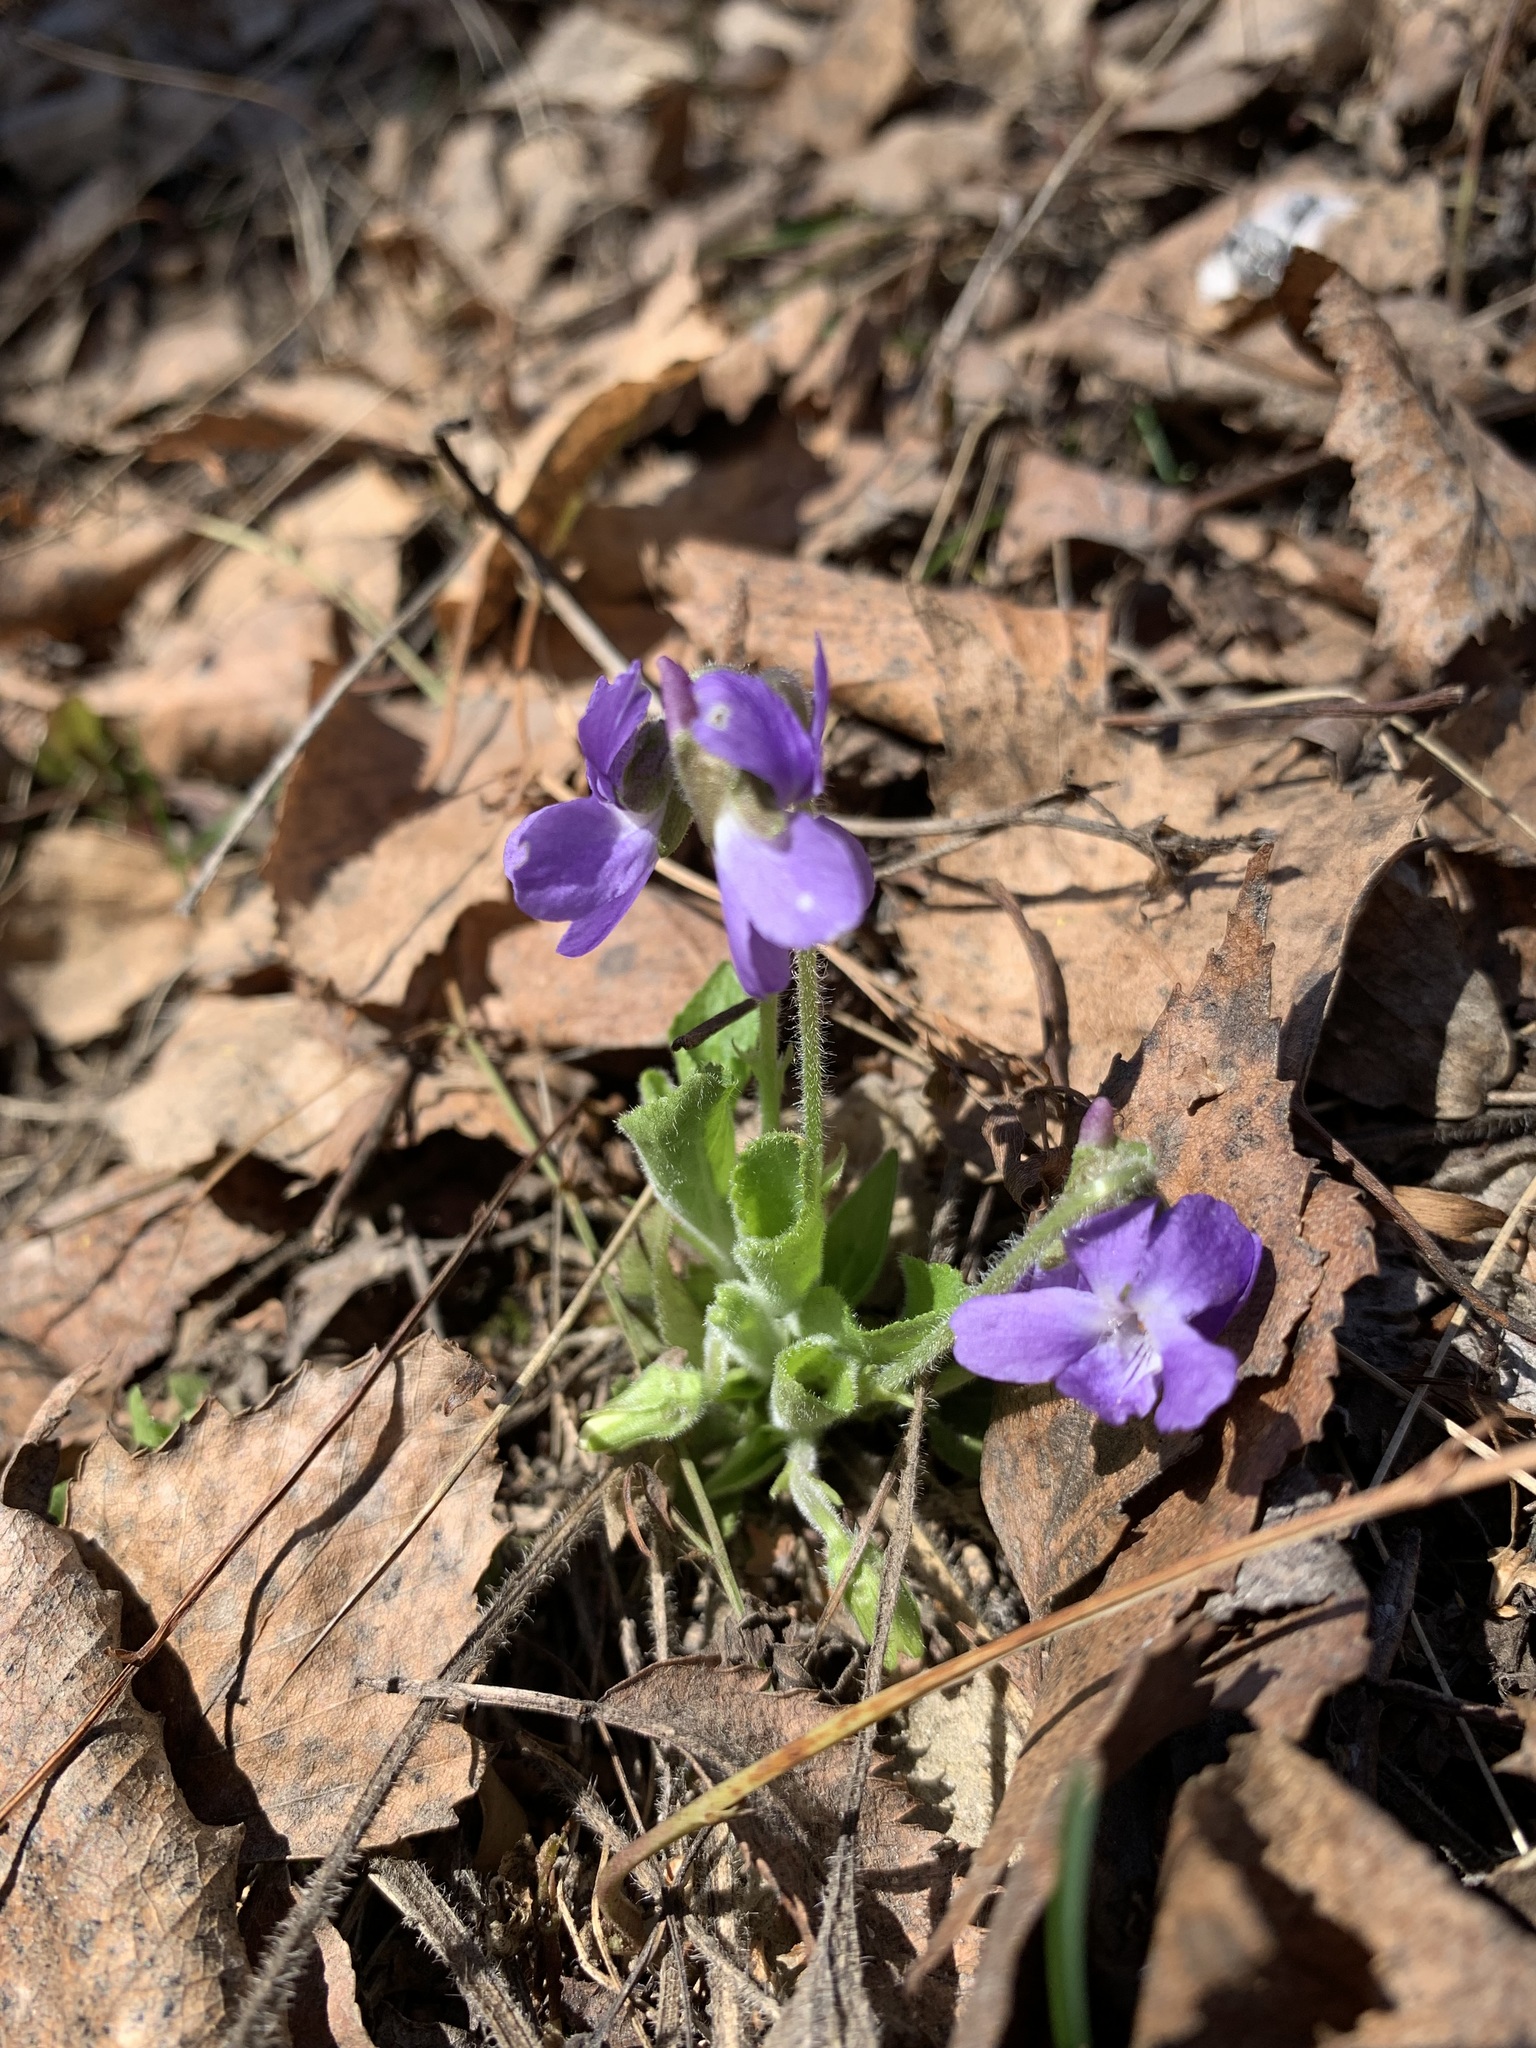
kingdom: Plantae
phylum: Tracheophyta
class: Magnoliopsida
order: Malpighiales
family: Violaceae
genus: Viola
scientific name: Viola hirta
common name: Hairy violet
